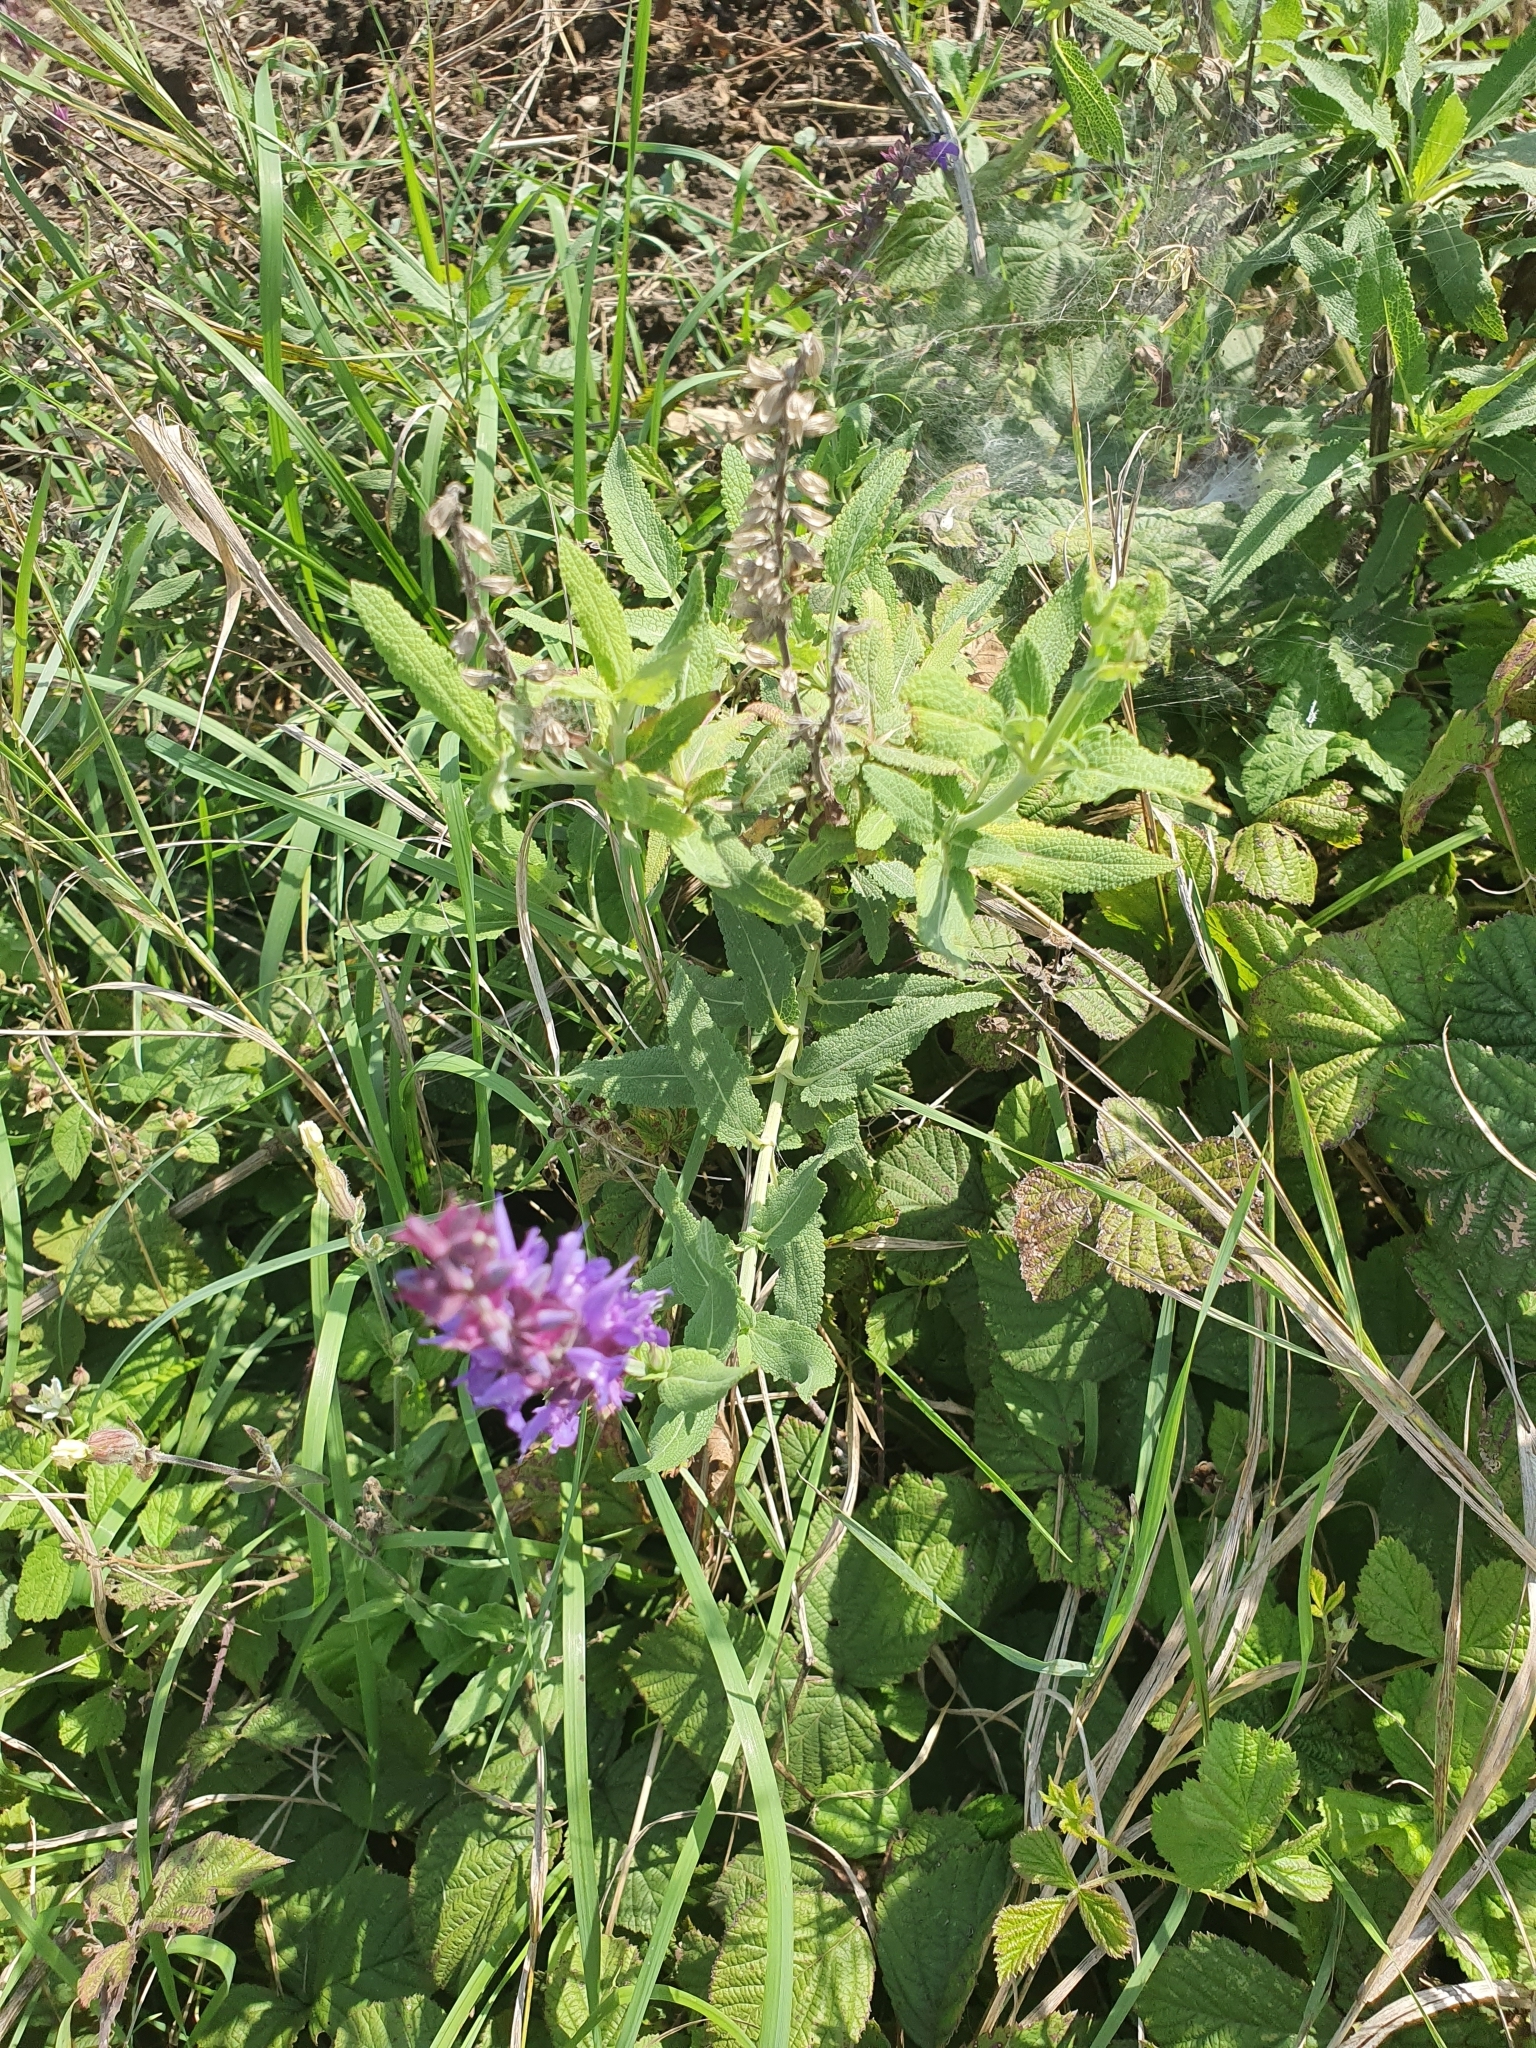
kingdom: Plantae
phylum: Tracheophyta
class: Magnoliopsida
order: Lamiales
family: Lamiaceae
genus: Salvia
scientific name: Salvia nemorosa
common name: Balkan clary
